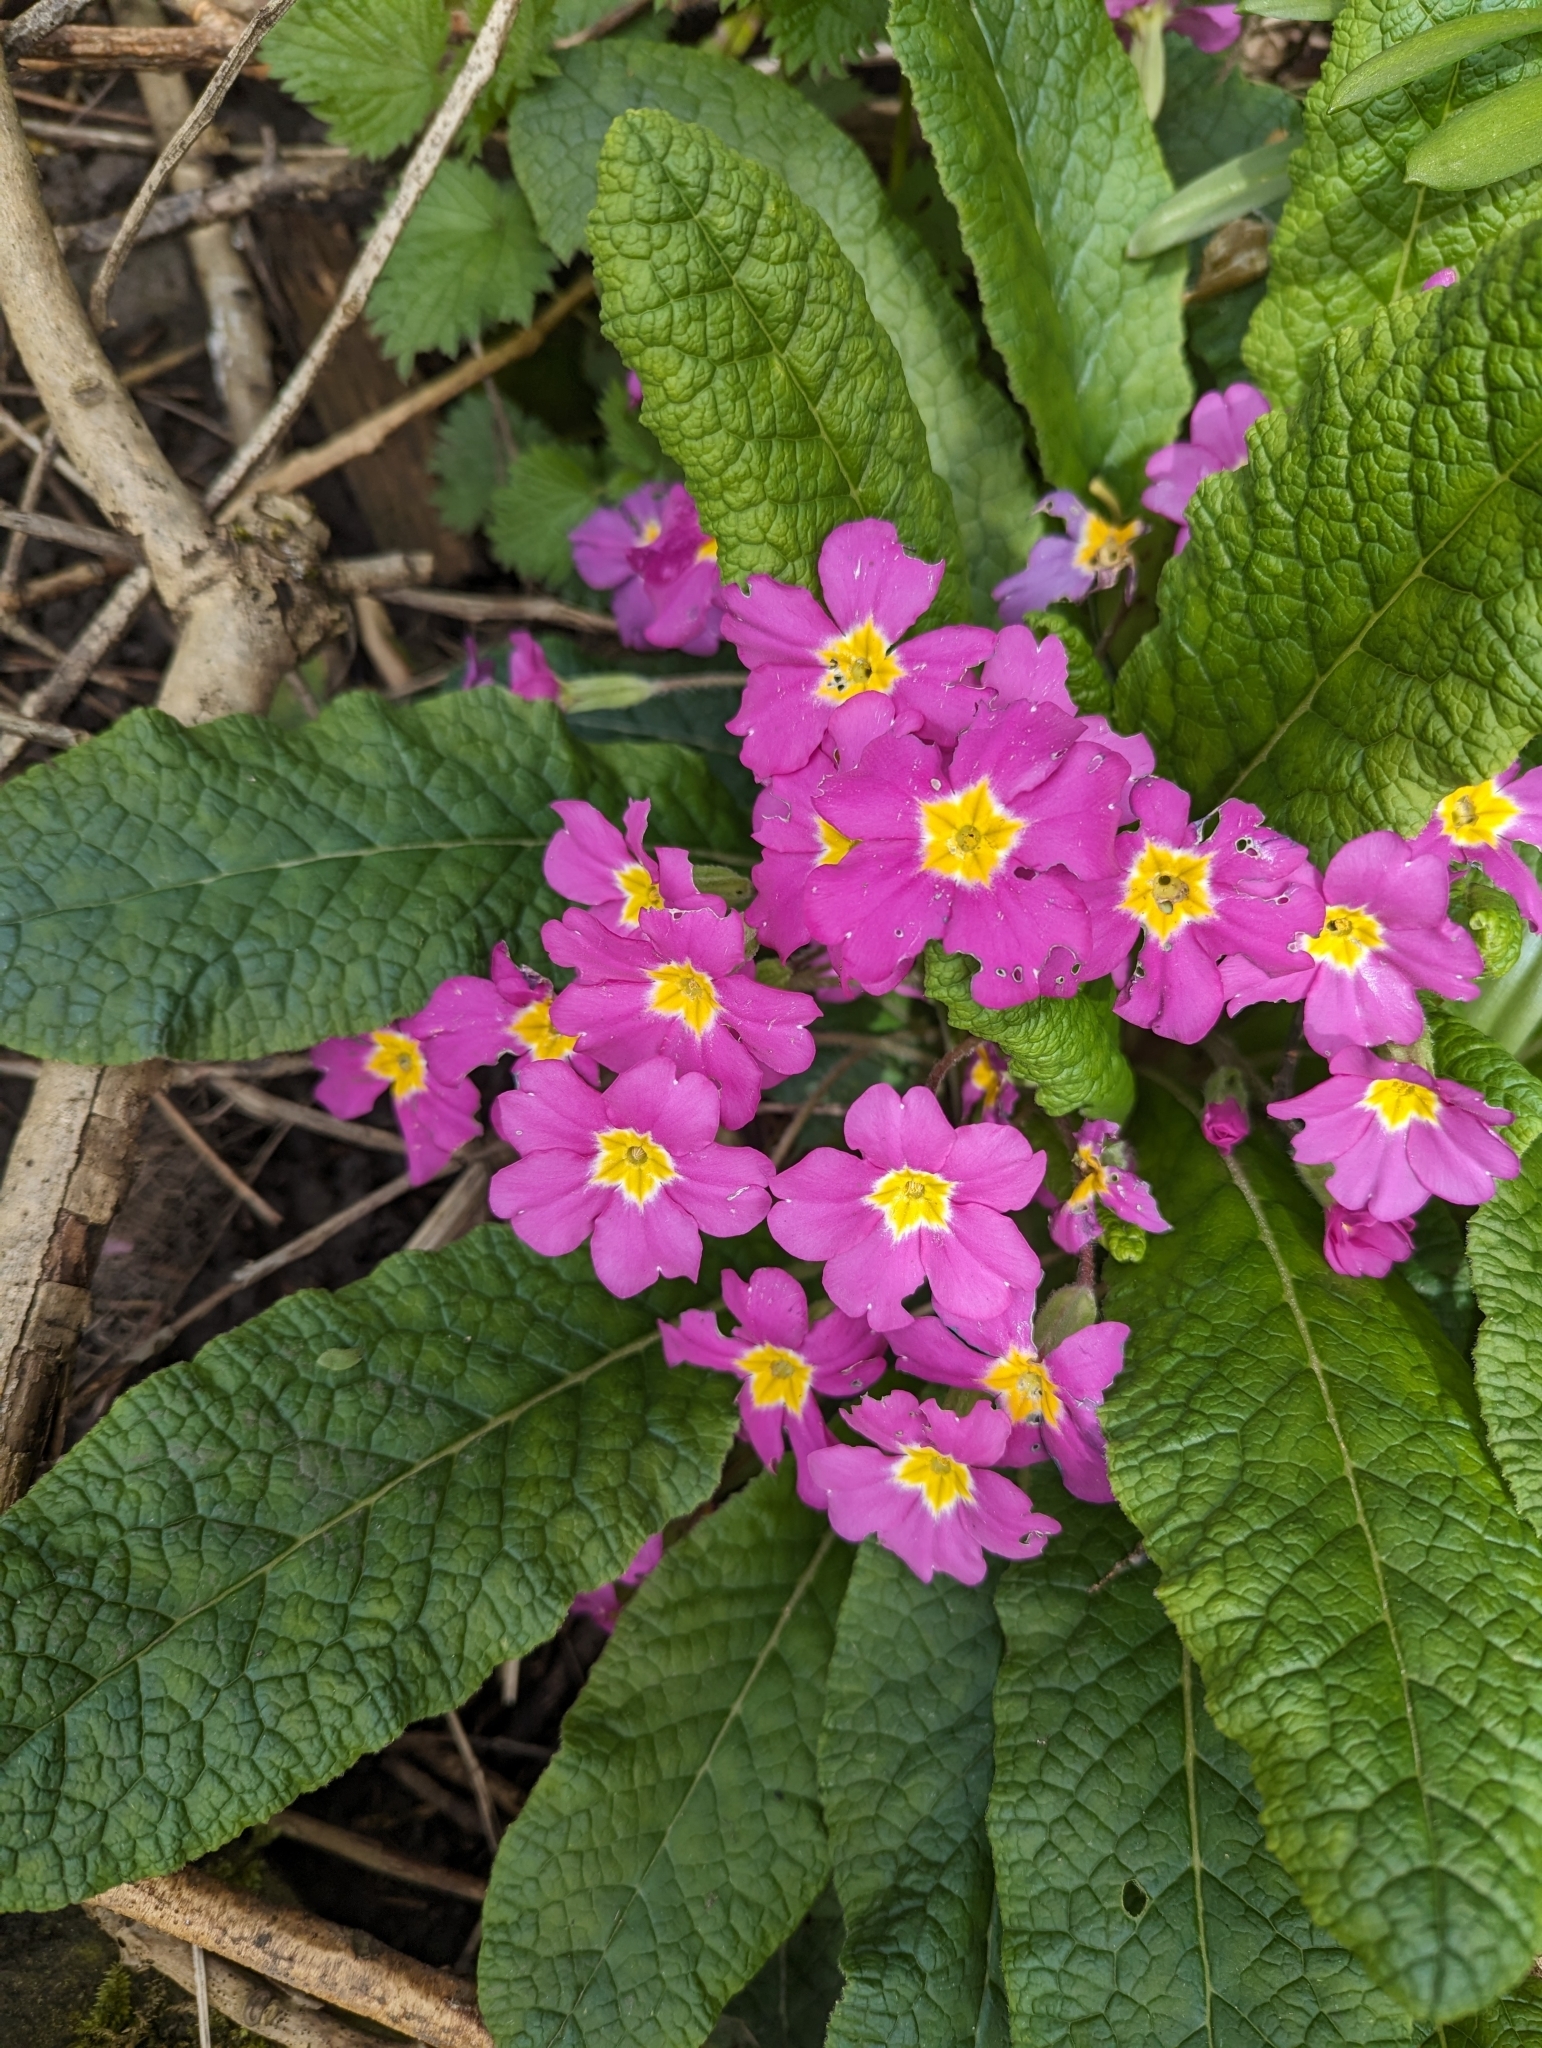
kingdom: Plantae
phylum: Tracheophyta
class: Magnoliopsida
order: Ericales
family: Primulaceae
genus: Primula
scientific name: Primula vulgaris
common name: Primrose
